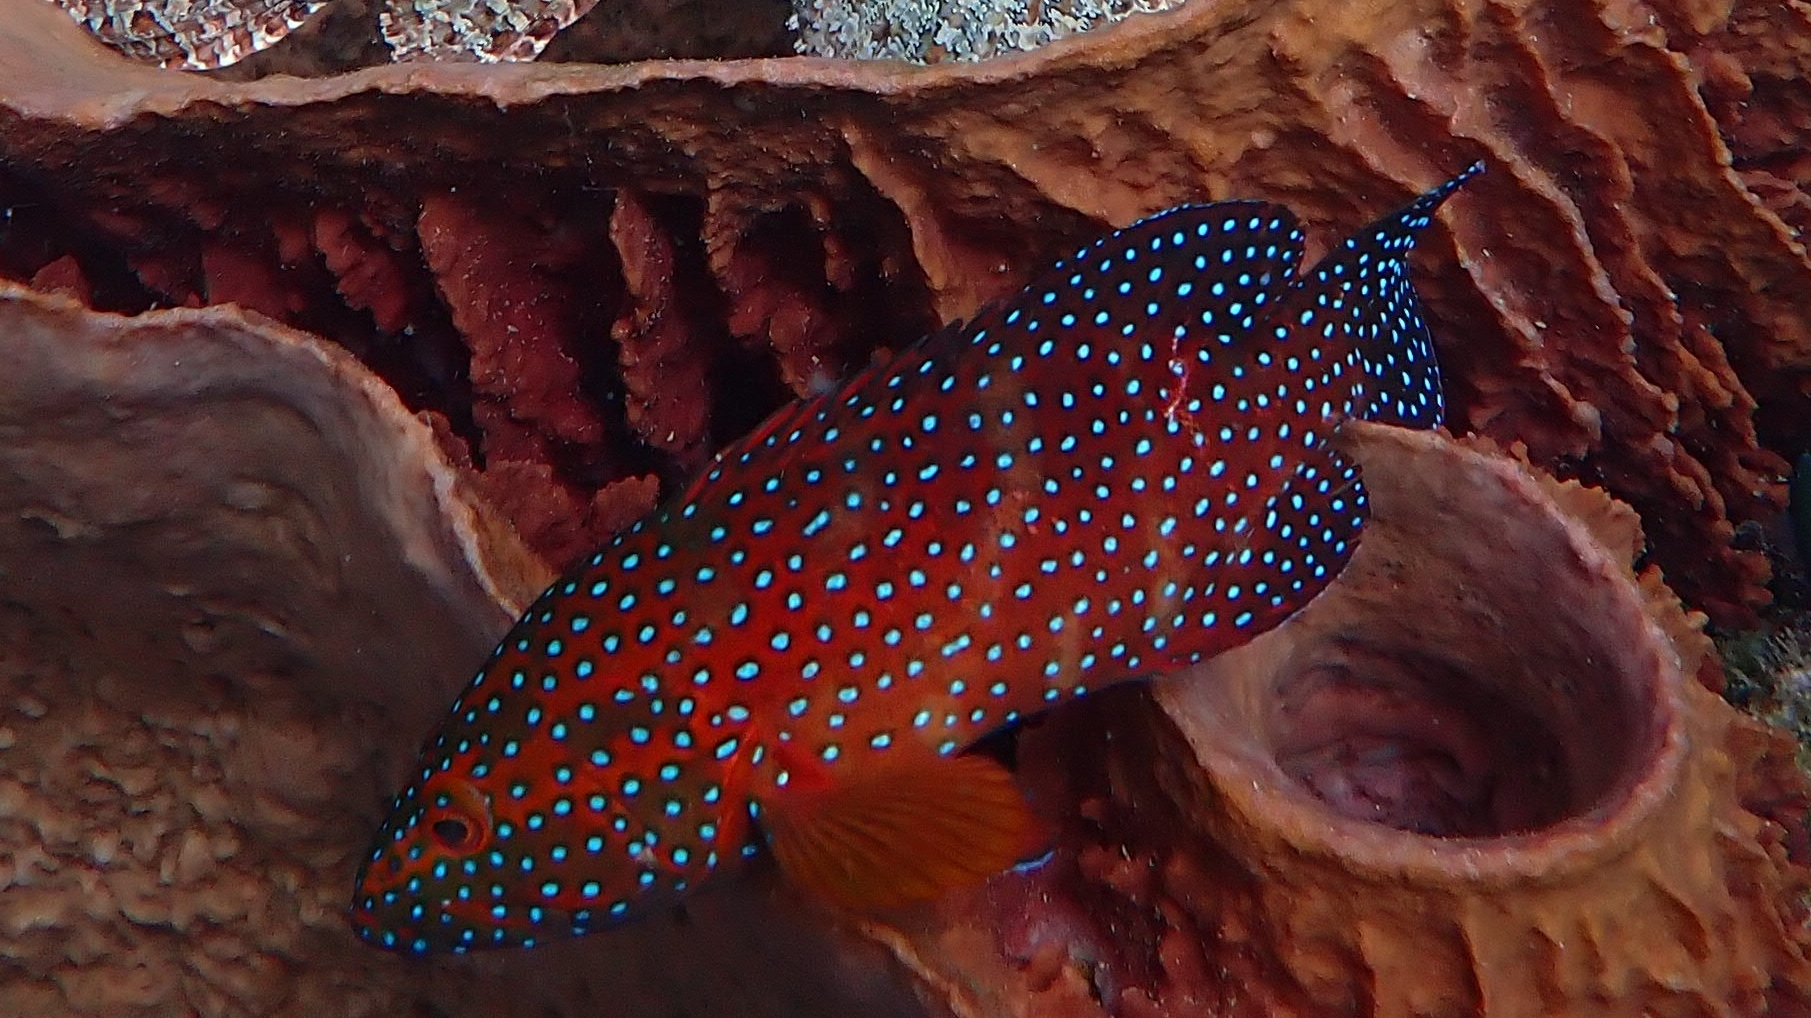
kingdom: Animalia
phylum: Chordata
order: Perciformes
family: Serranidae
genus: Cephalopholis
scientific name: Cephalopholis miniata
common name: Coral hind
